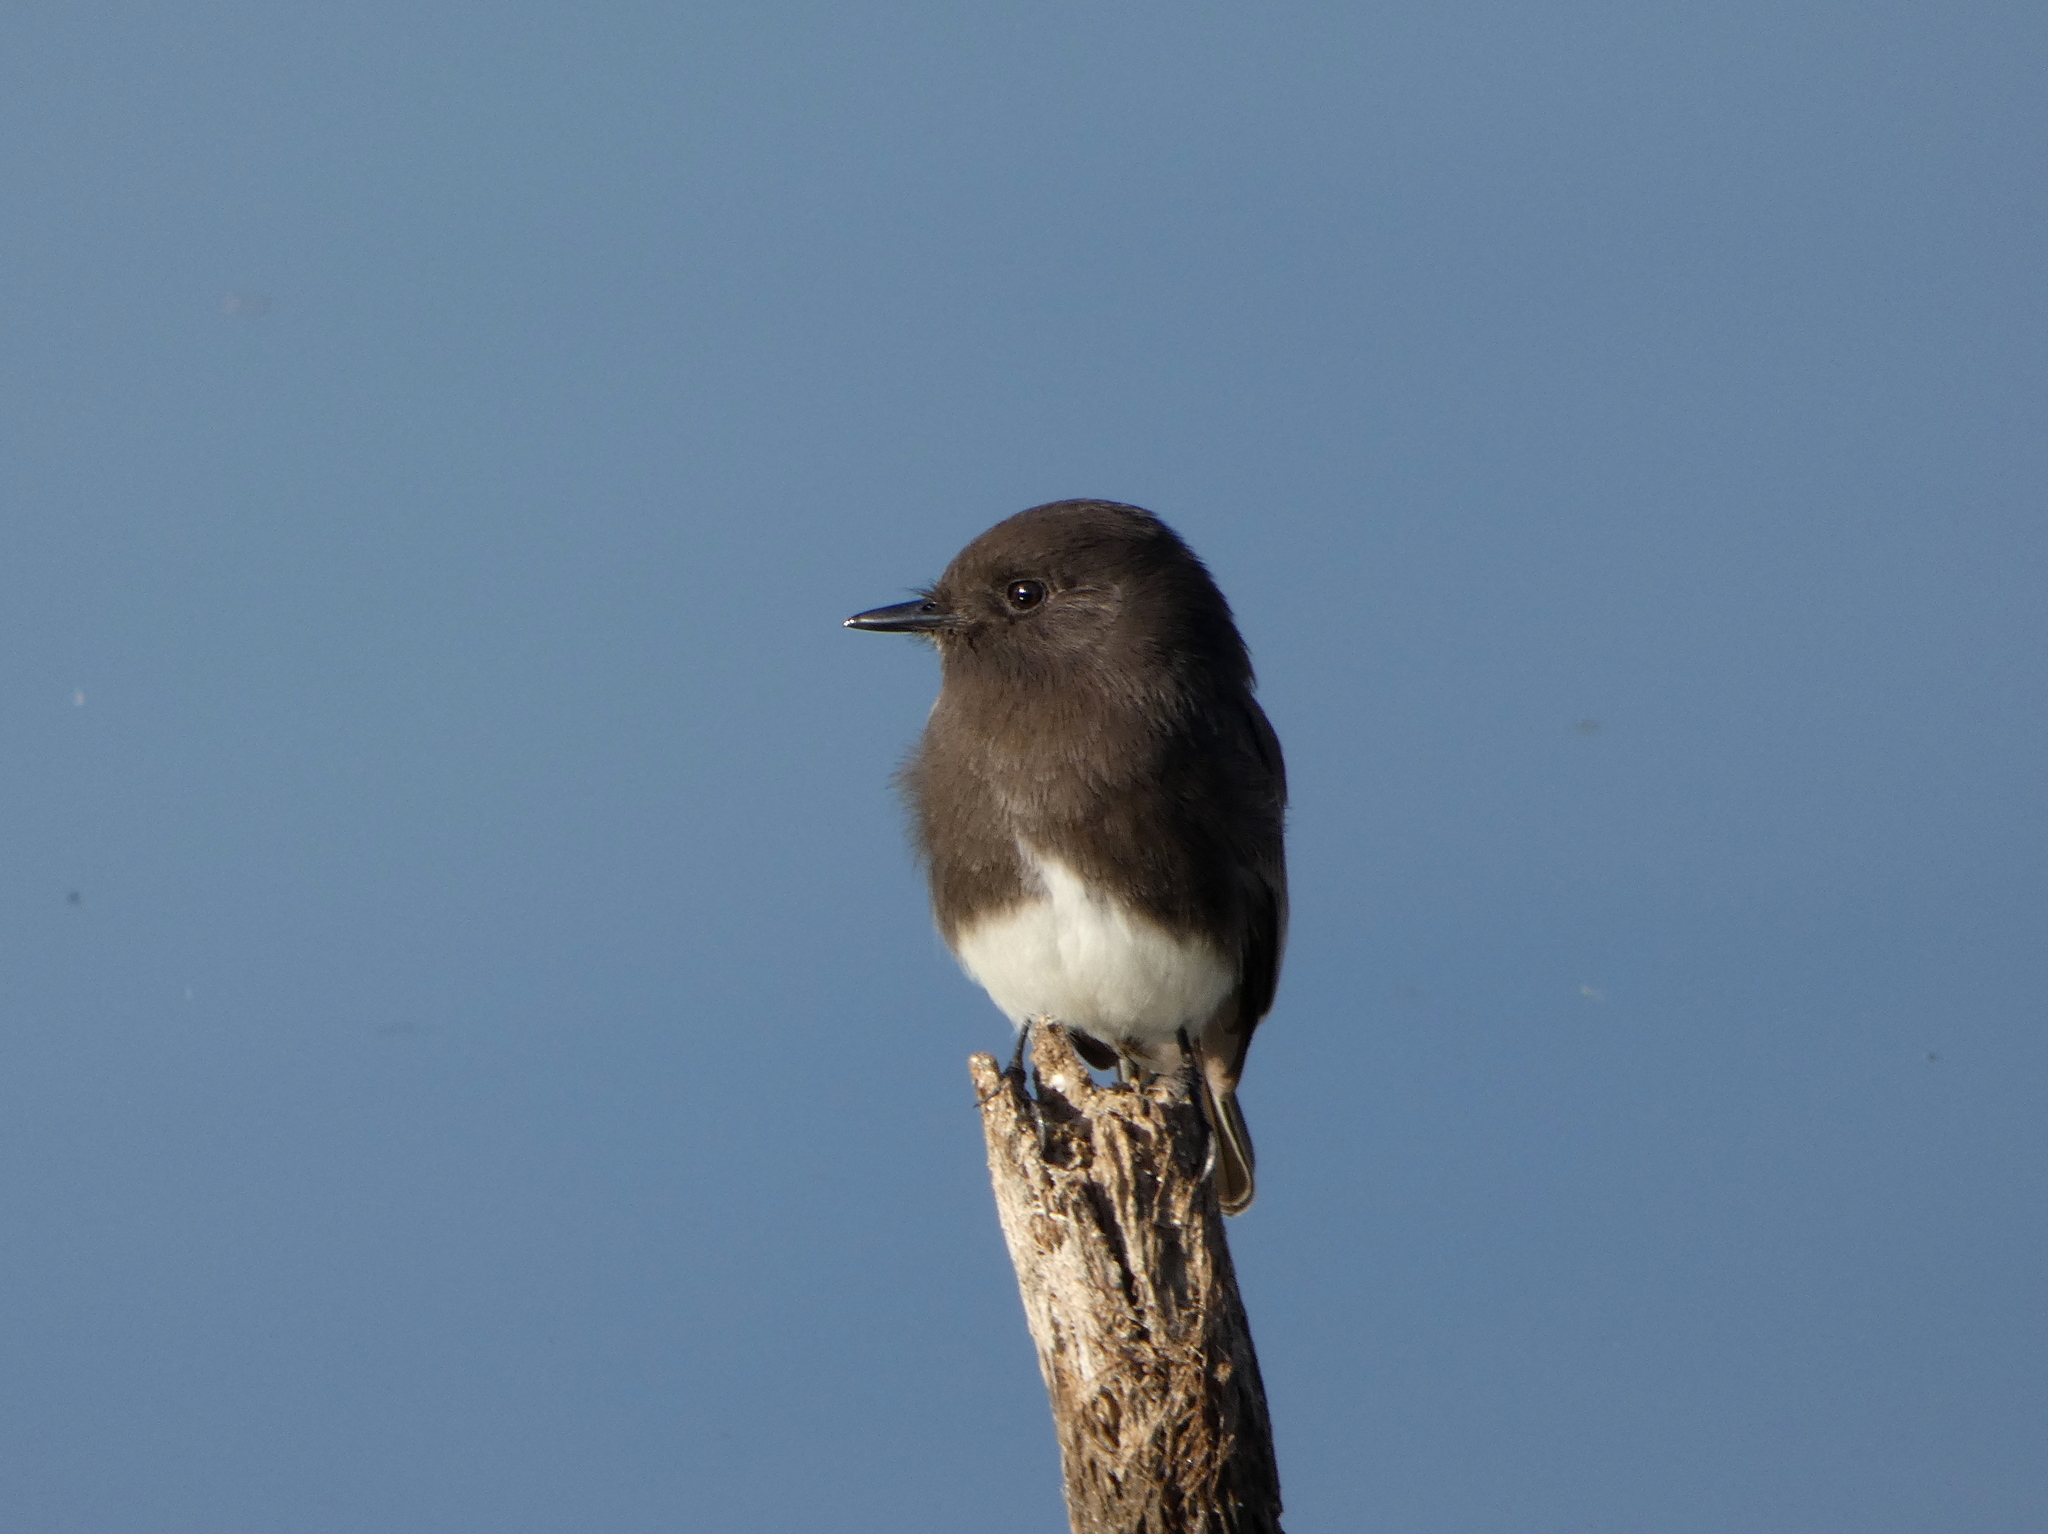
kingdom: Animalia
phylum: Chordata
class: Aves
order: Passeriformes
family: Tyrannidae
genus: Sayornis
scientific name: Sayornis nigricans
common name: Black phoebe
